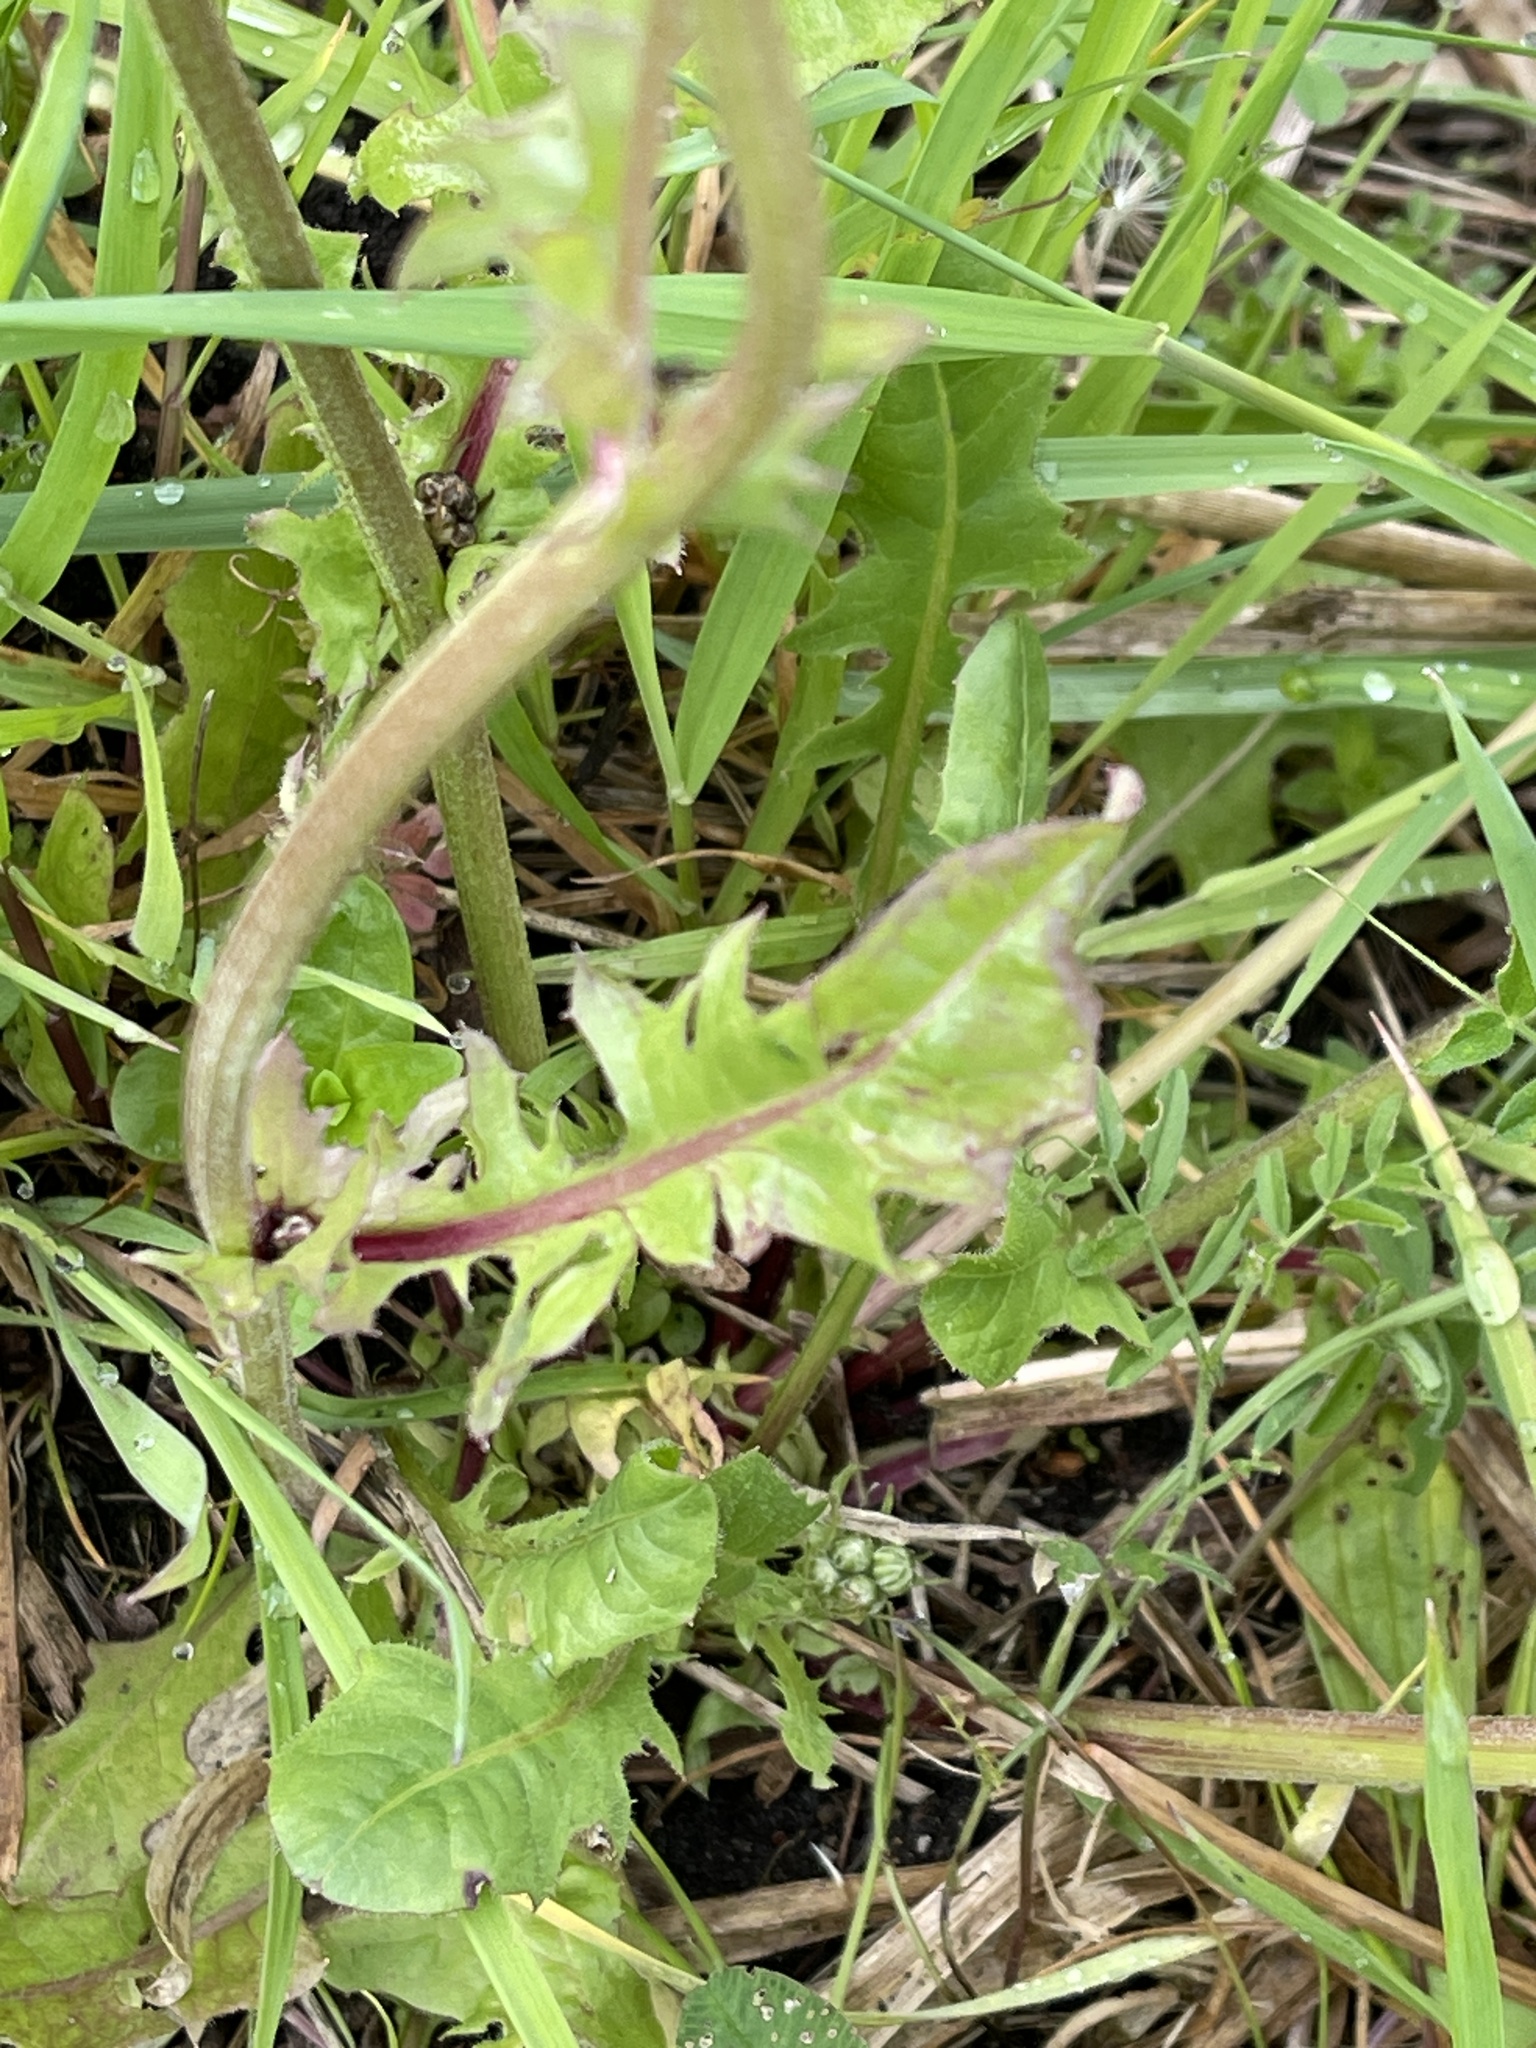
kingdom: Plantae
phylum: Tracheophyta
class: Magnoliopsida
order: Asterales
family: Asteraceae
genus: Crepis
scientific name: Crepis vesicaria
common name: Beaked hawksbeard
